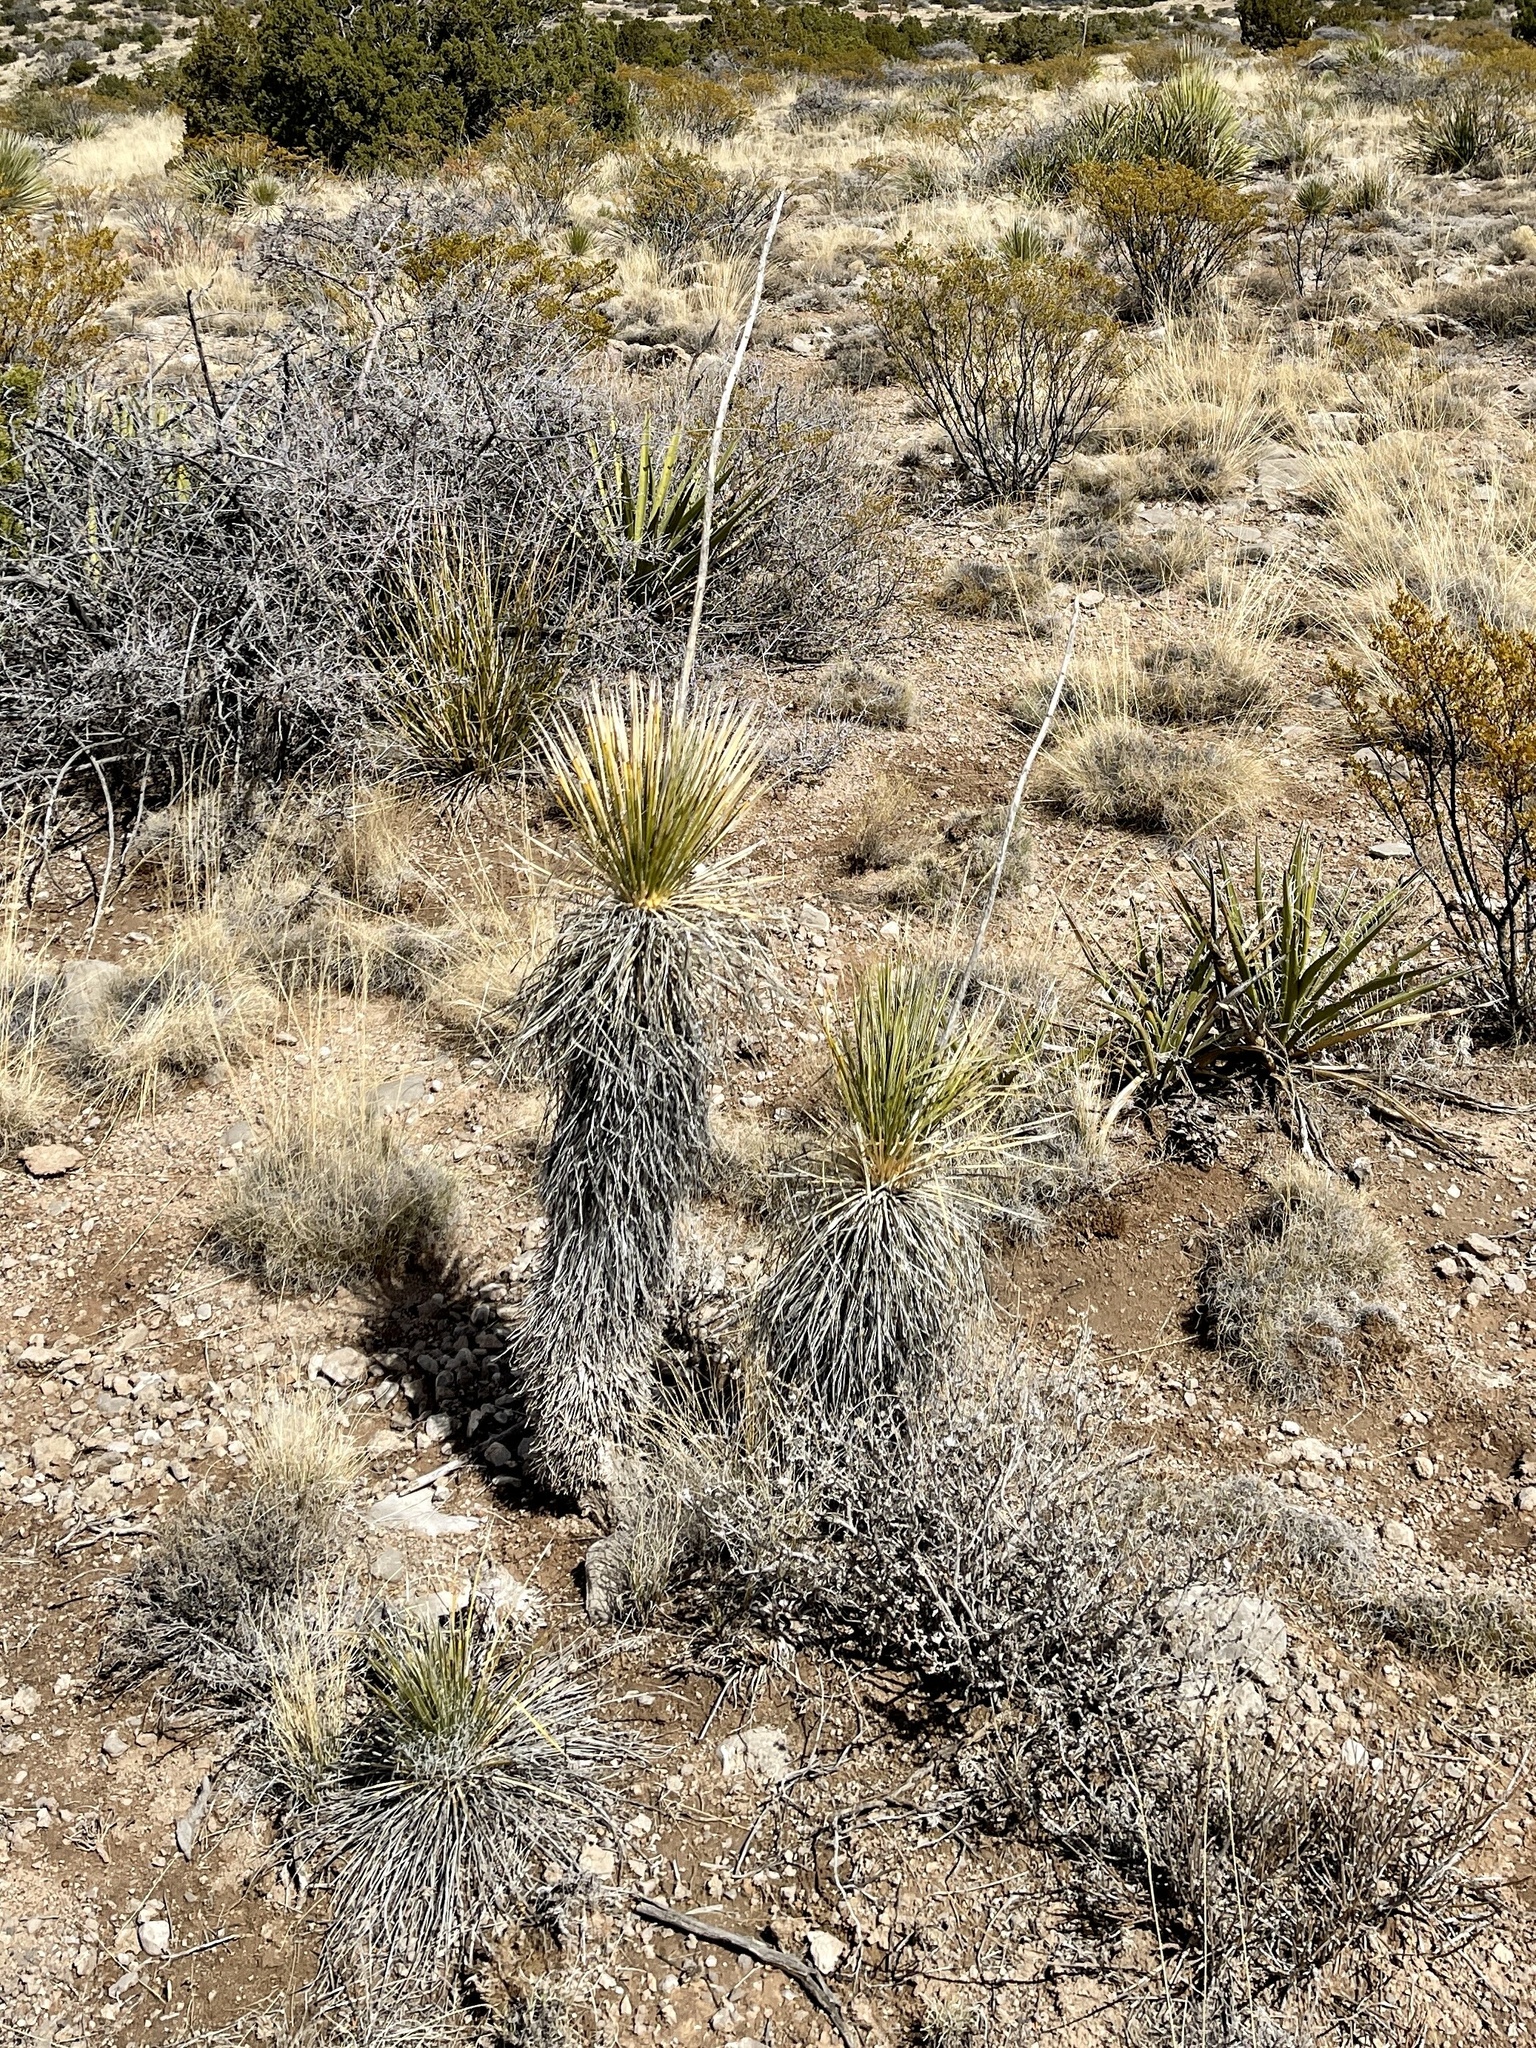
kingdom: Plantae
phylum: Tracheophyta
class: Liliopsida
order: Asparagales
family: Asparagaceae
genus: Yucca
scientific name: Yucca elata
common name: Palmella
